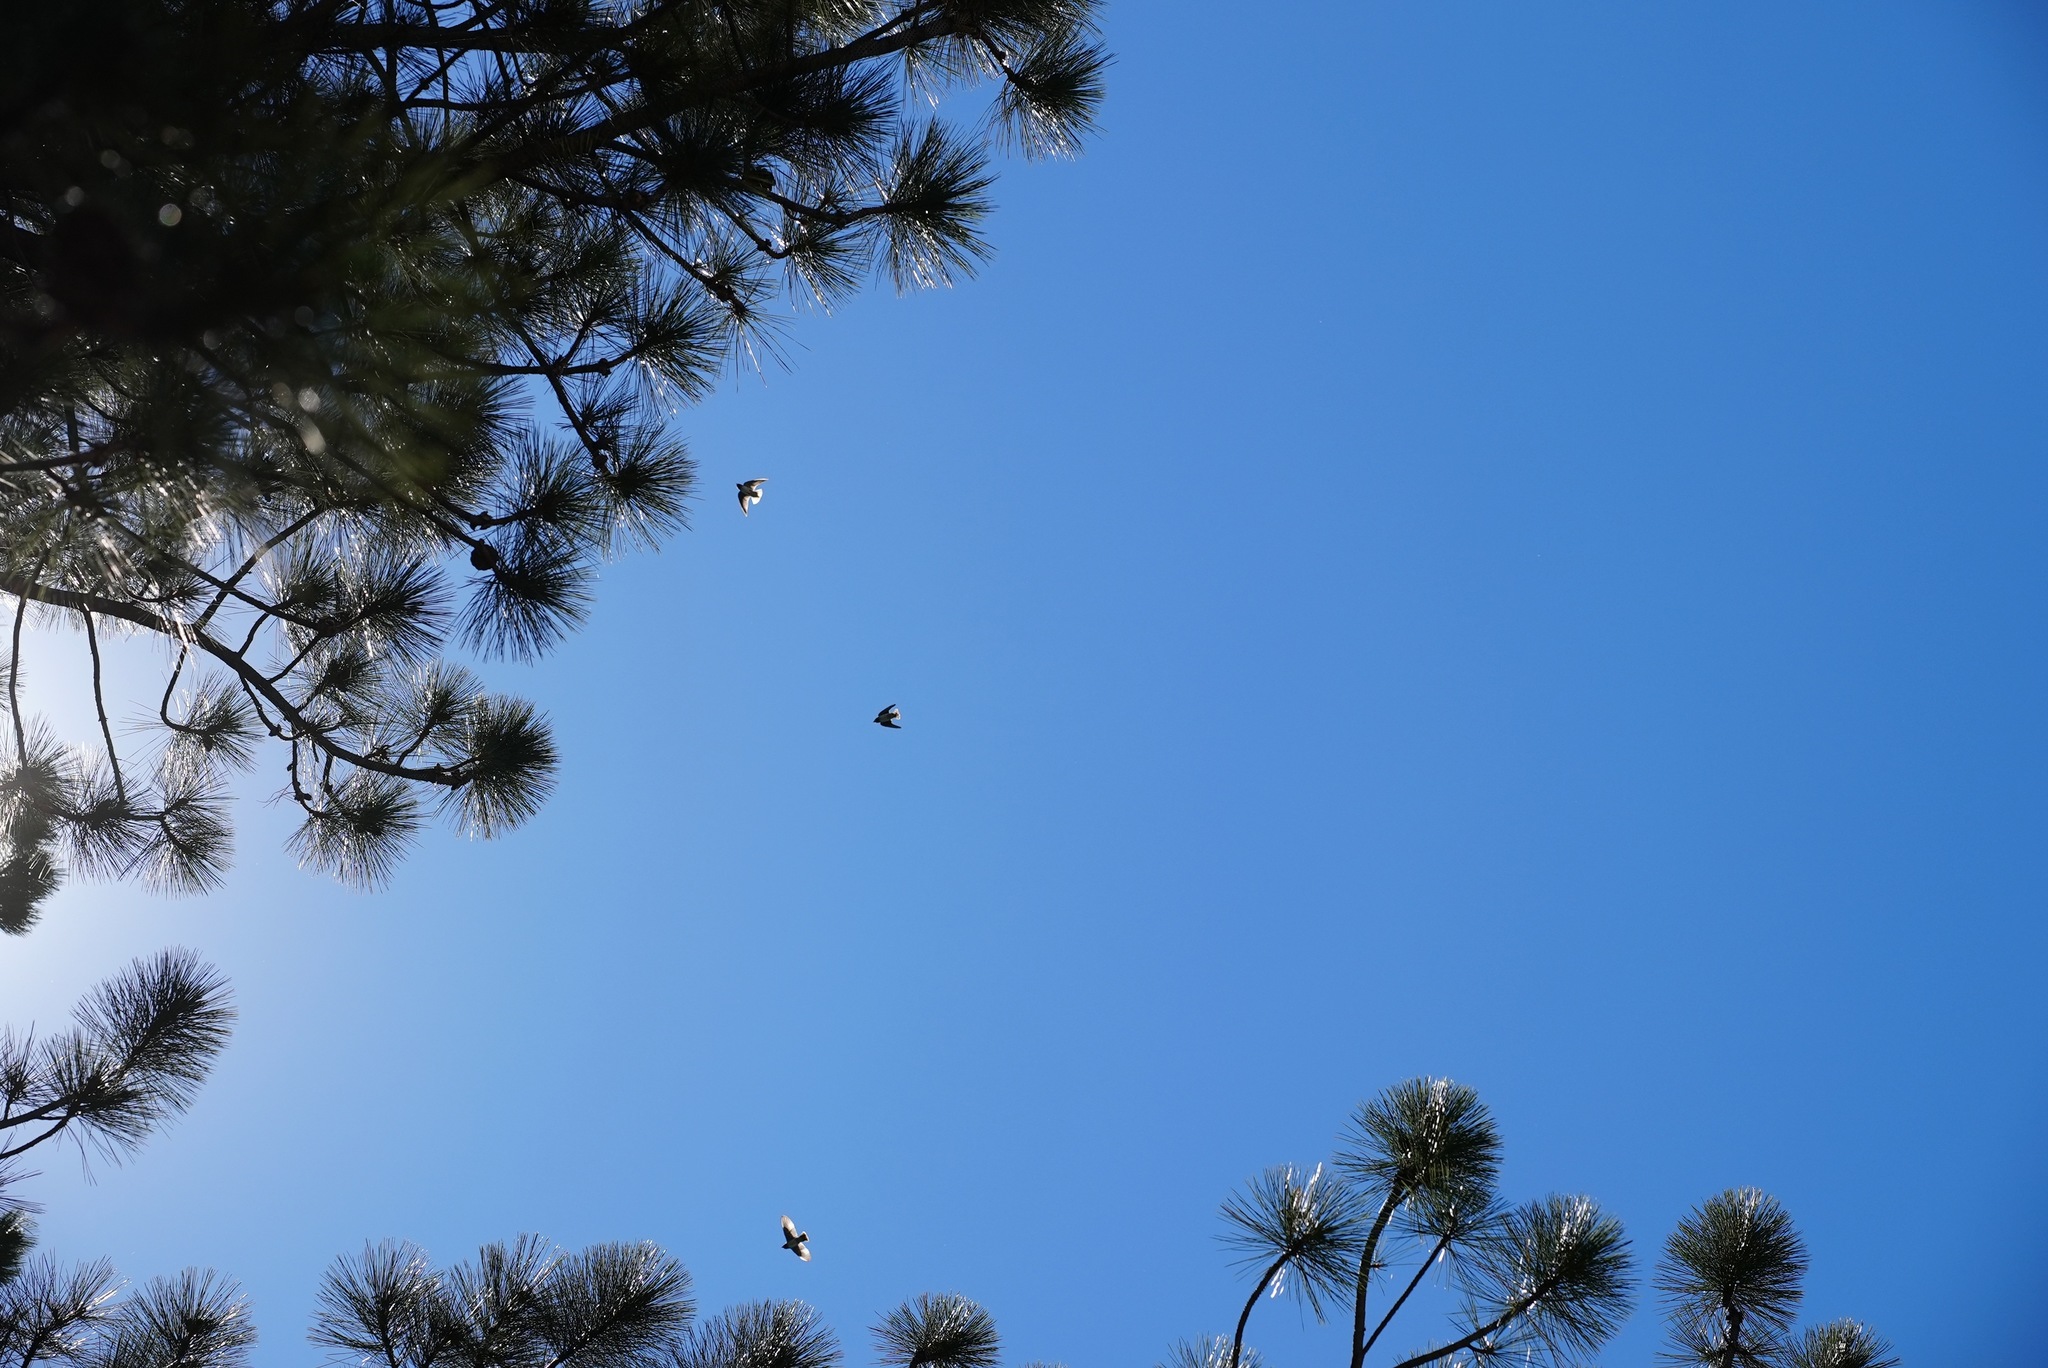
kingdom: Animalia
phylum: Chordata
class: Aves
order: Passeriformes
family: Hirundinidae
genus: Petrochelidon
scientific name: Petrochelidon pyrrhonota
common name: American cliff swallow
